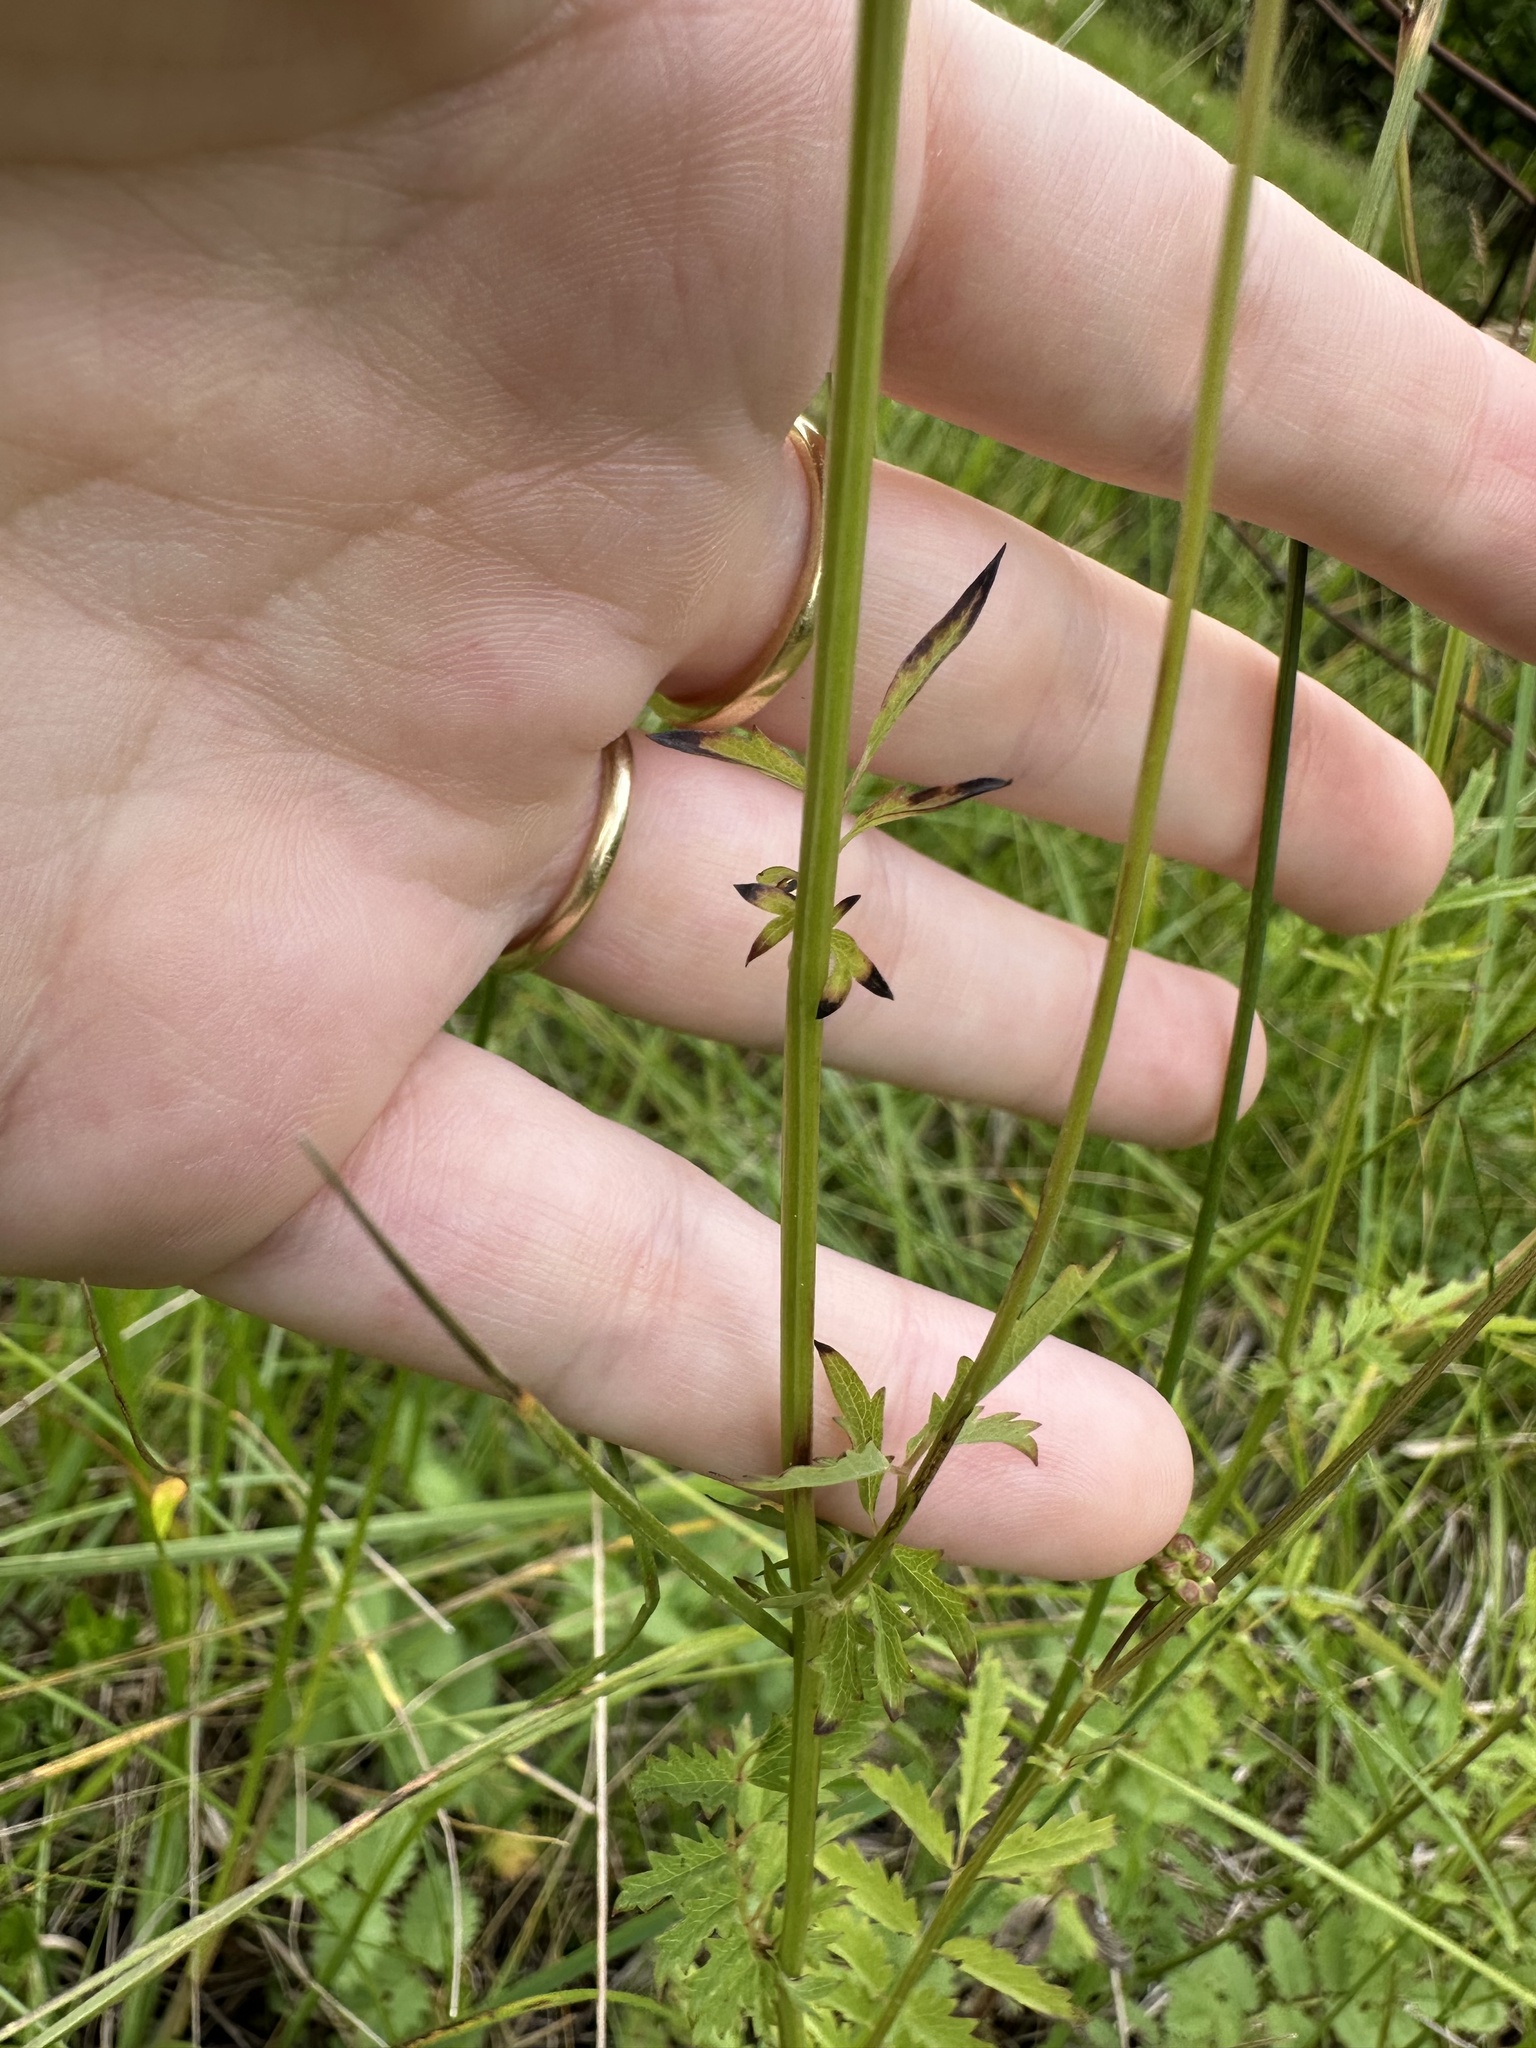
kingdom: Plantae
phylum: Tracheophyta
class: Magnoliopsida
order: Rosales
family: Rosaceae
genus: Poterium
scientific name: Poterium sanguisorba
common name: Salad burnet
